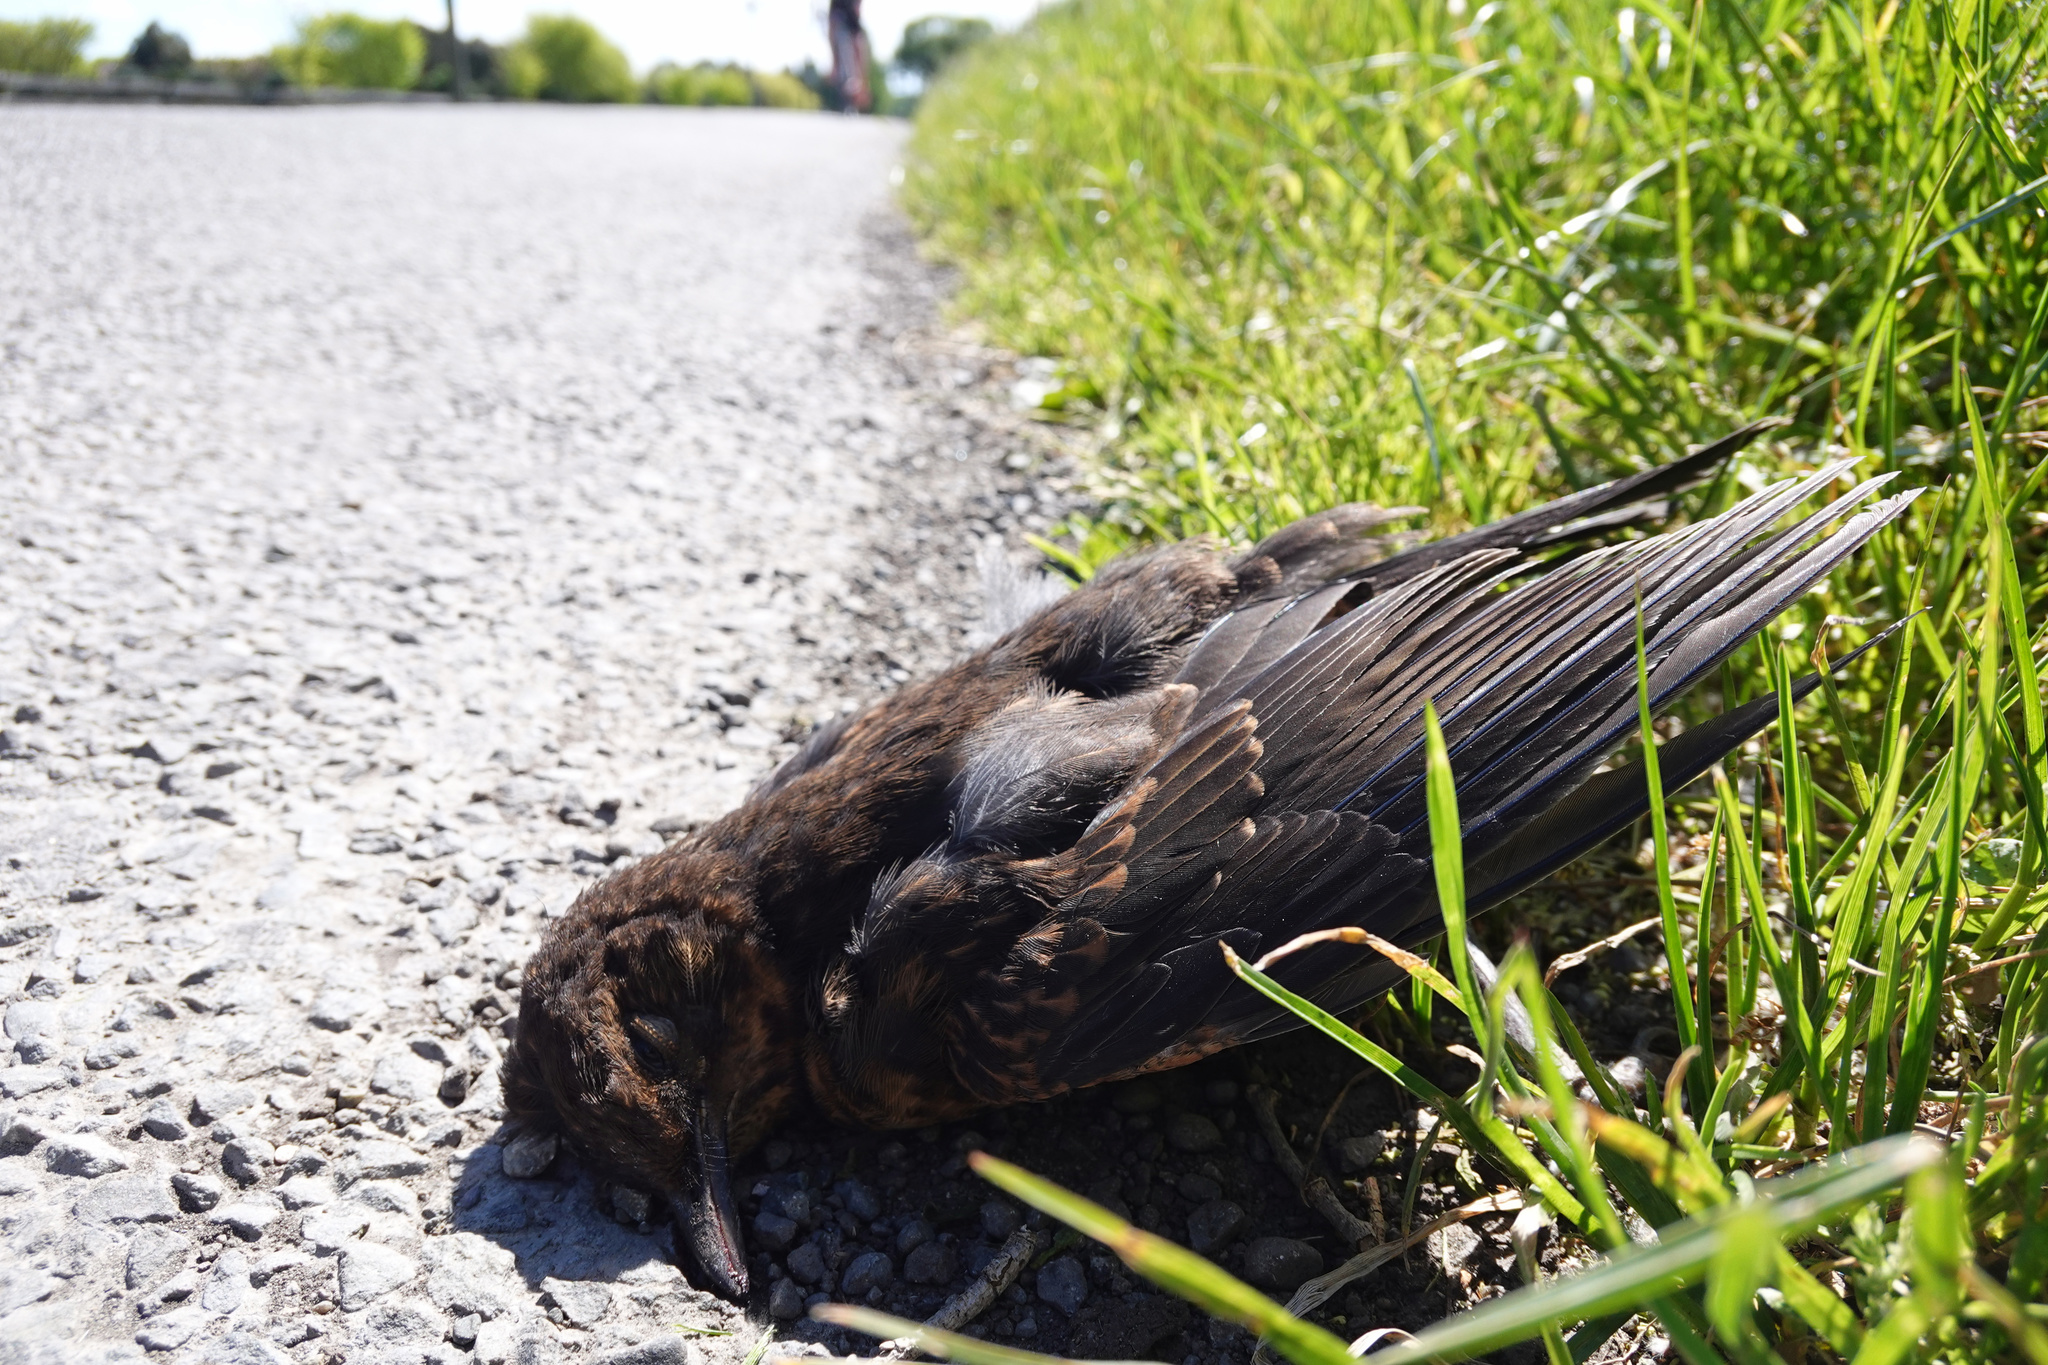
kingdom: Animalia
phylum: Chordata
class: Aves
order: Passeriformes
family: Turdidae
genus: Turdus
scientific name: Turdus merula
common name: Common blackbird
